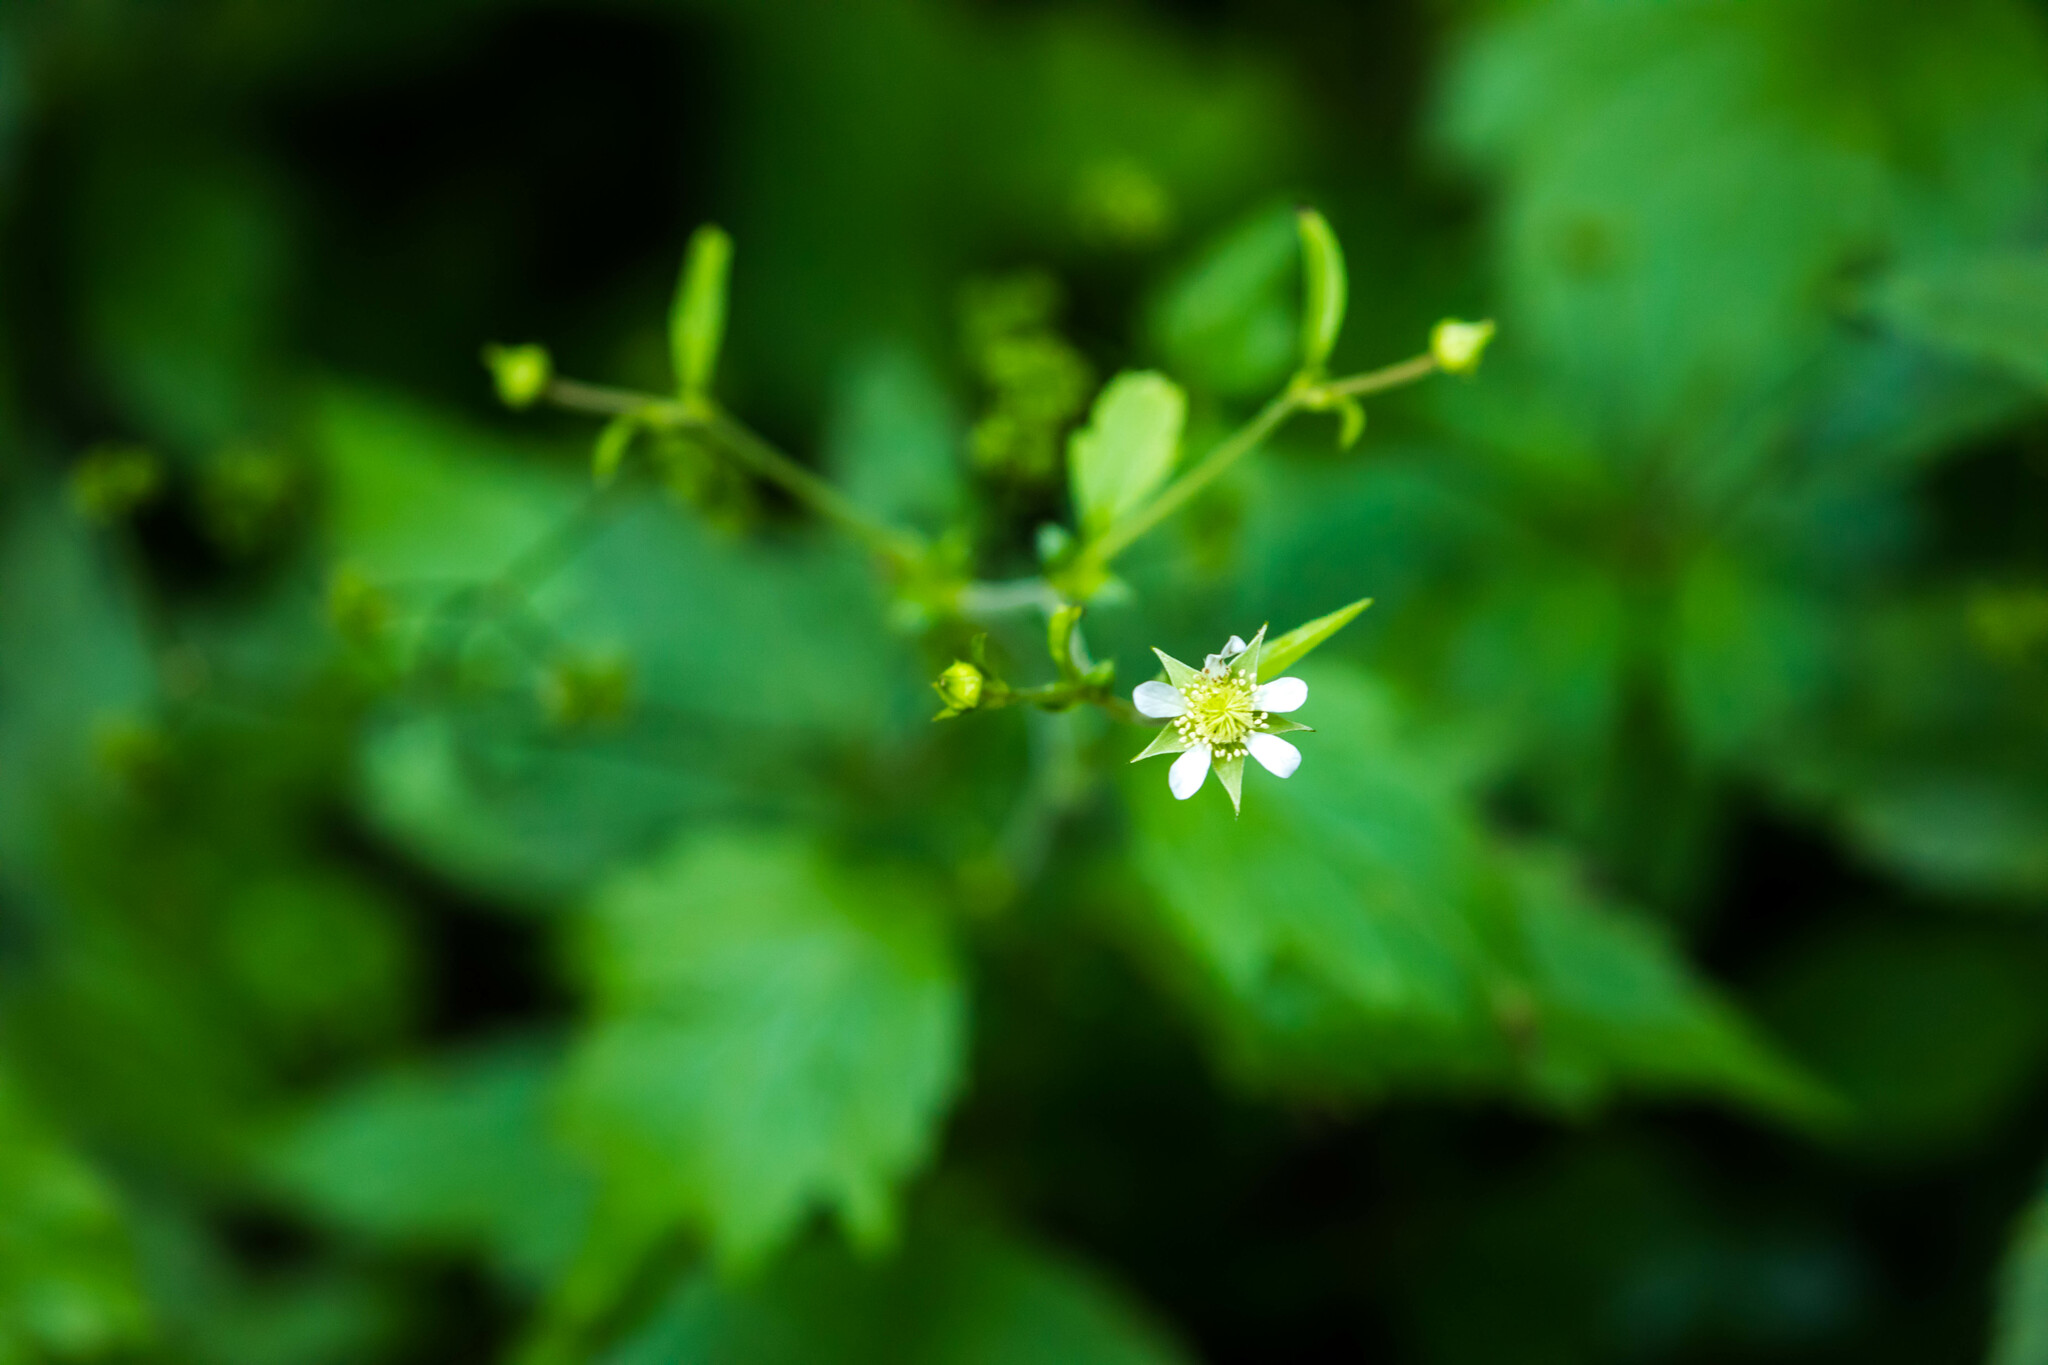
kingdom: Plantae
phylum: Tracheophyta
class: Magnoliopsida
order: Rosales
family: Rosaceae
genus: Geum
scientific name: Geum canadense
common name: White avens
